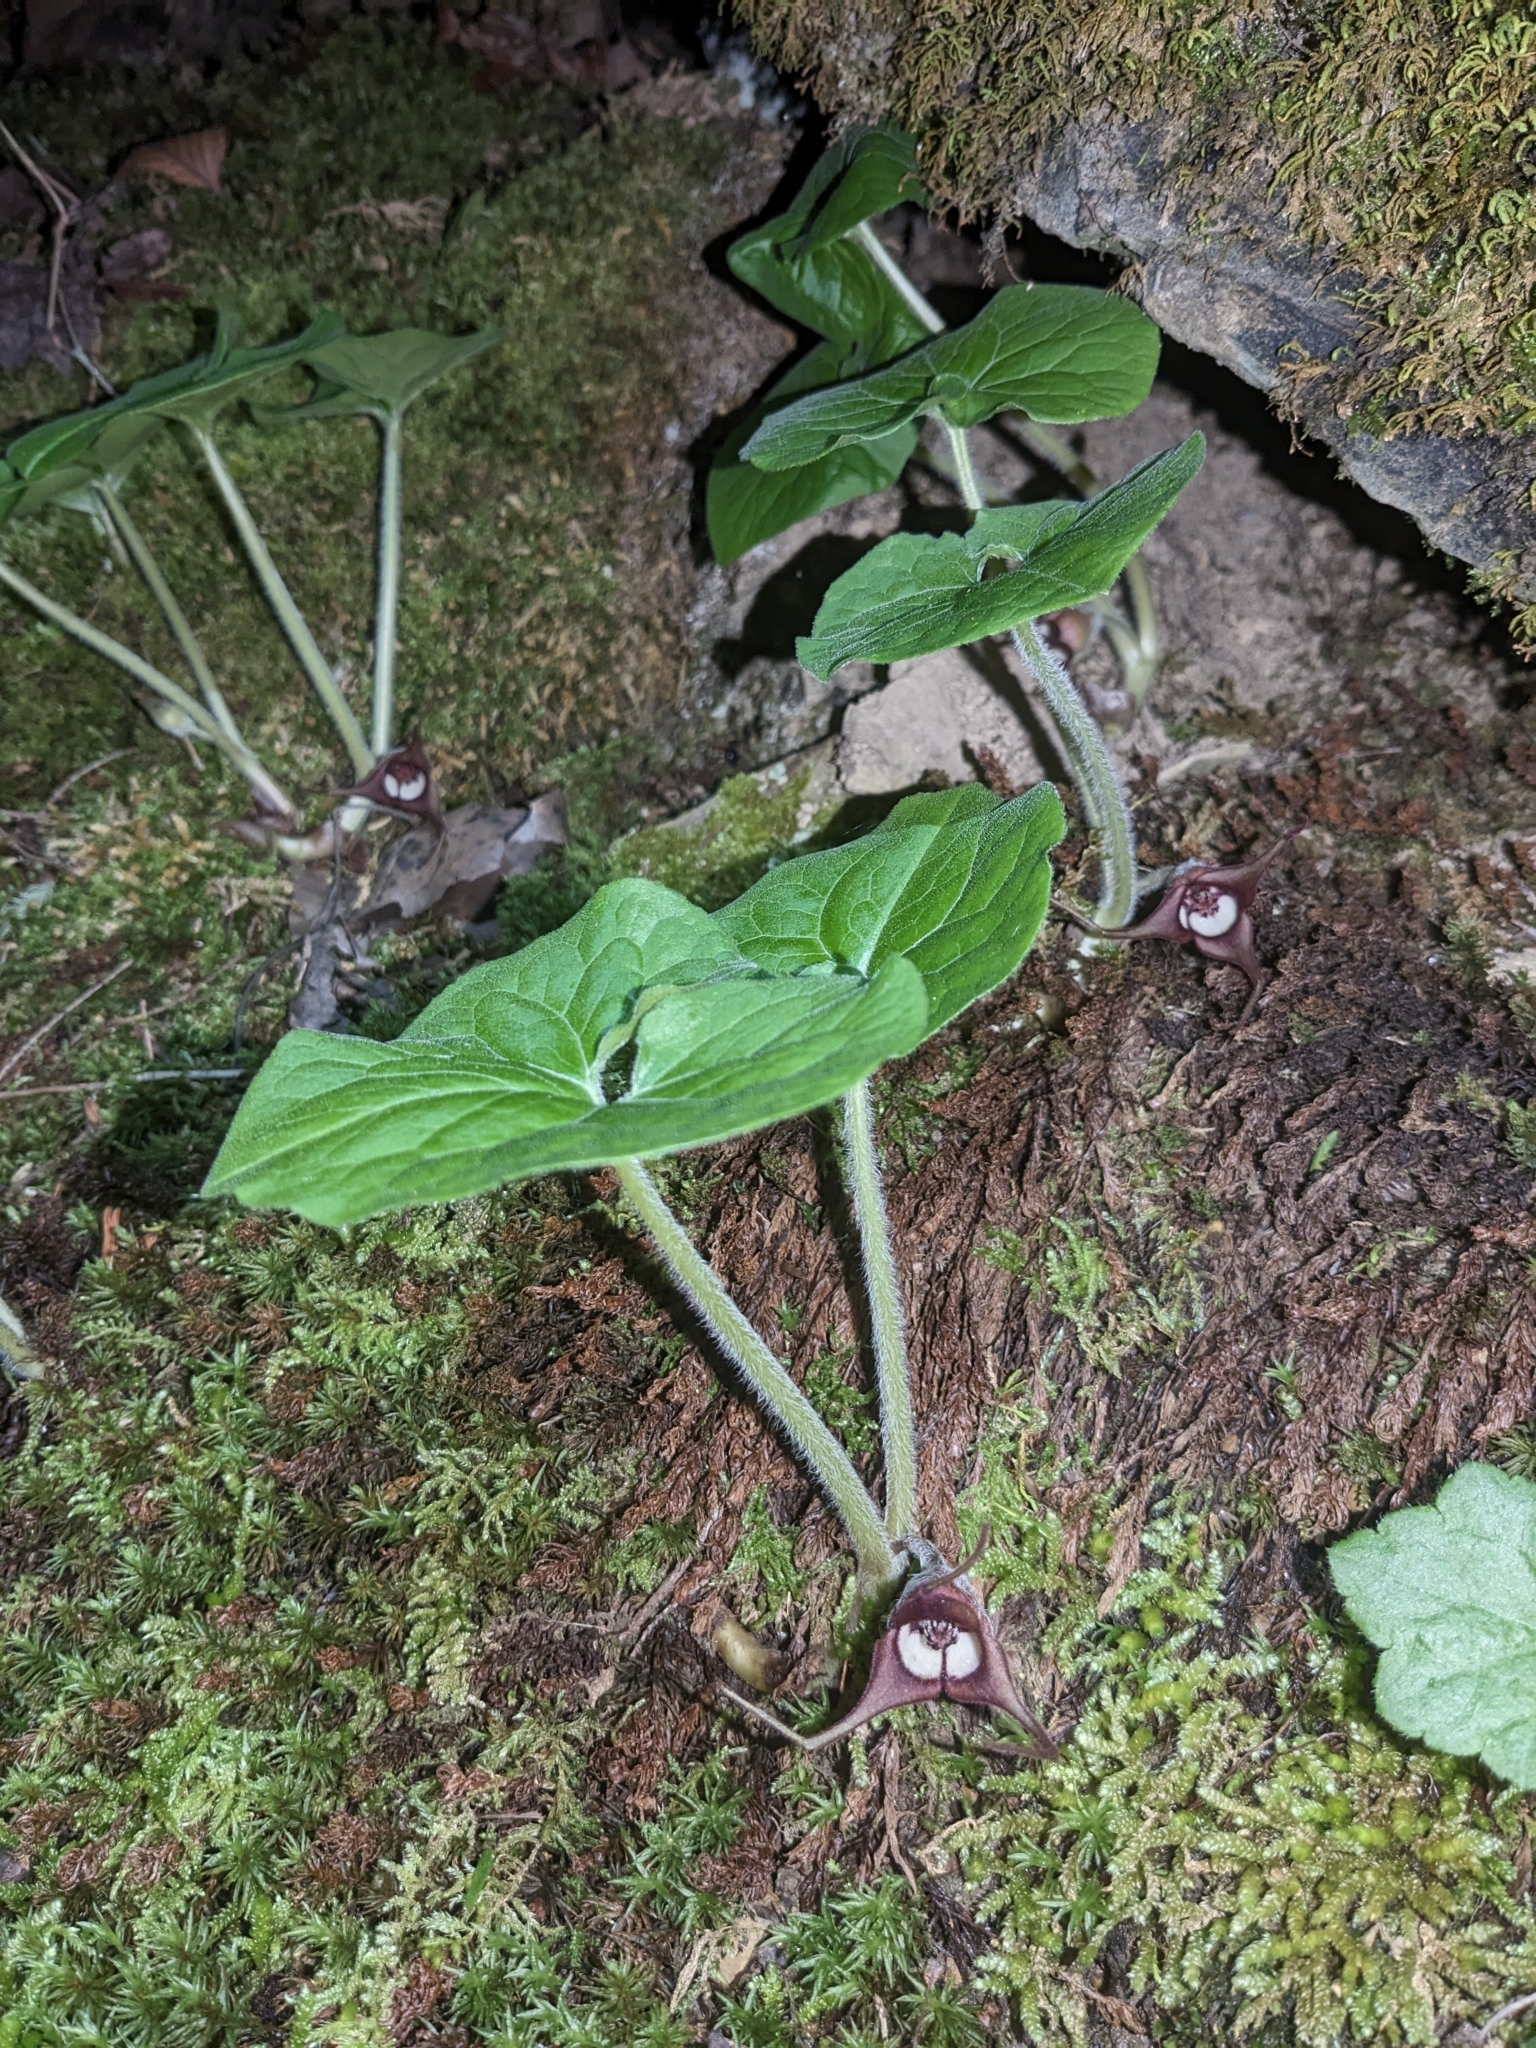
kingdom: Plantae
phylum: Tracheophyta
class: Magnoliopsida
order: Piperales
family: Aristolochiaceae
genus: Asarum
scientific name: Asarum canadense
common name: Wild ginger
